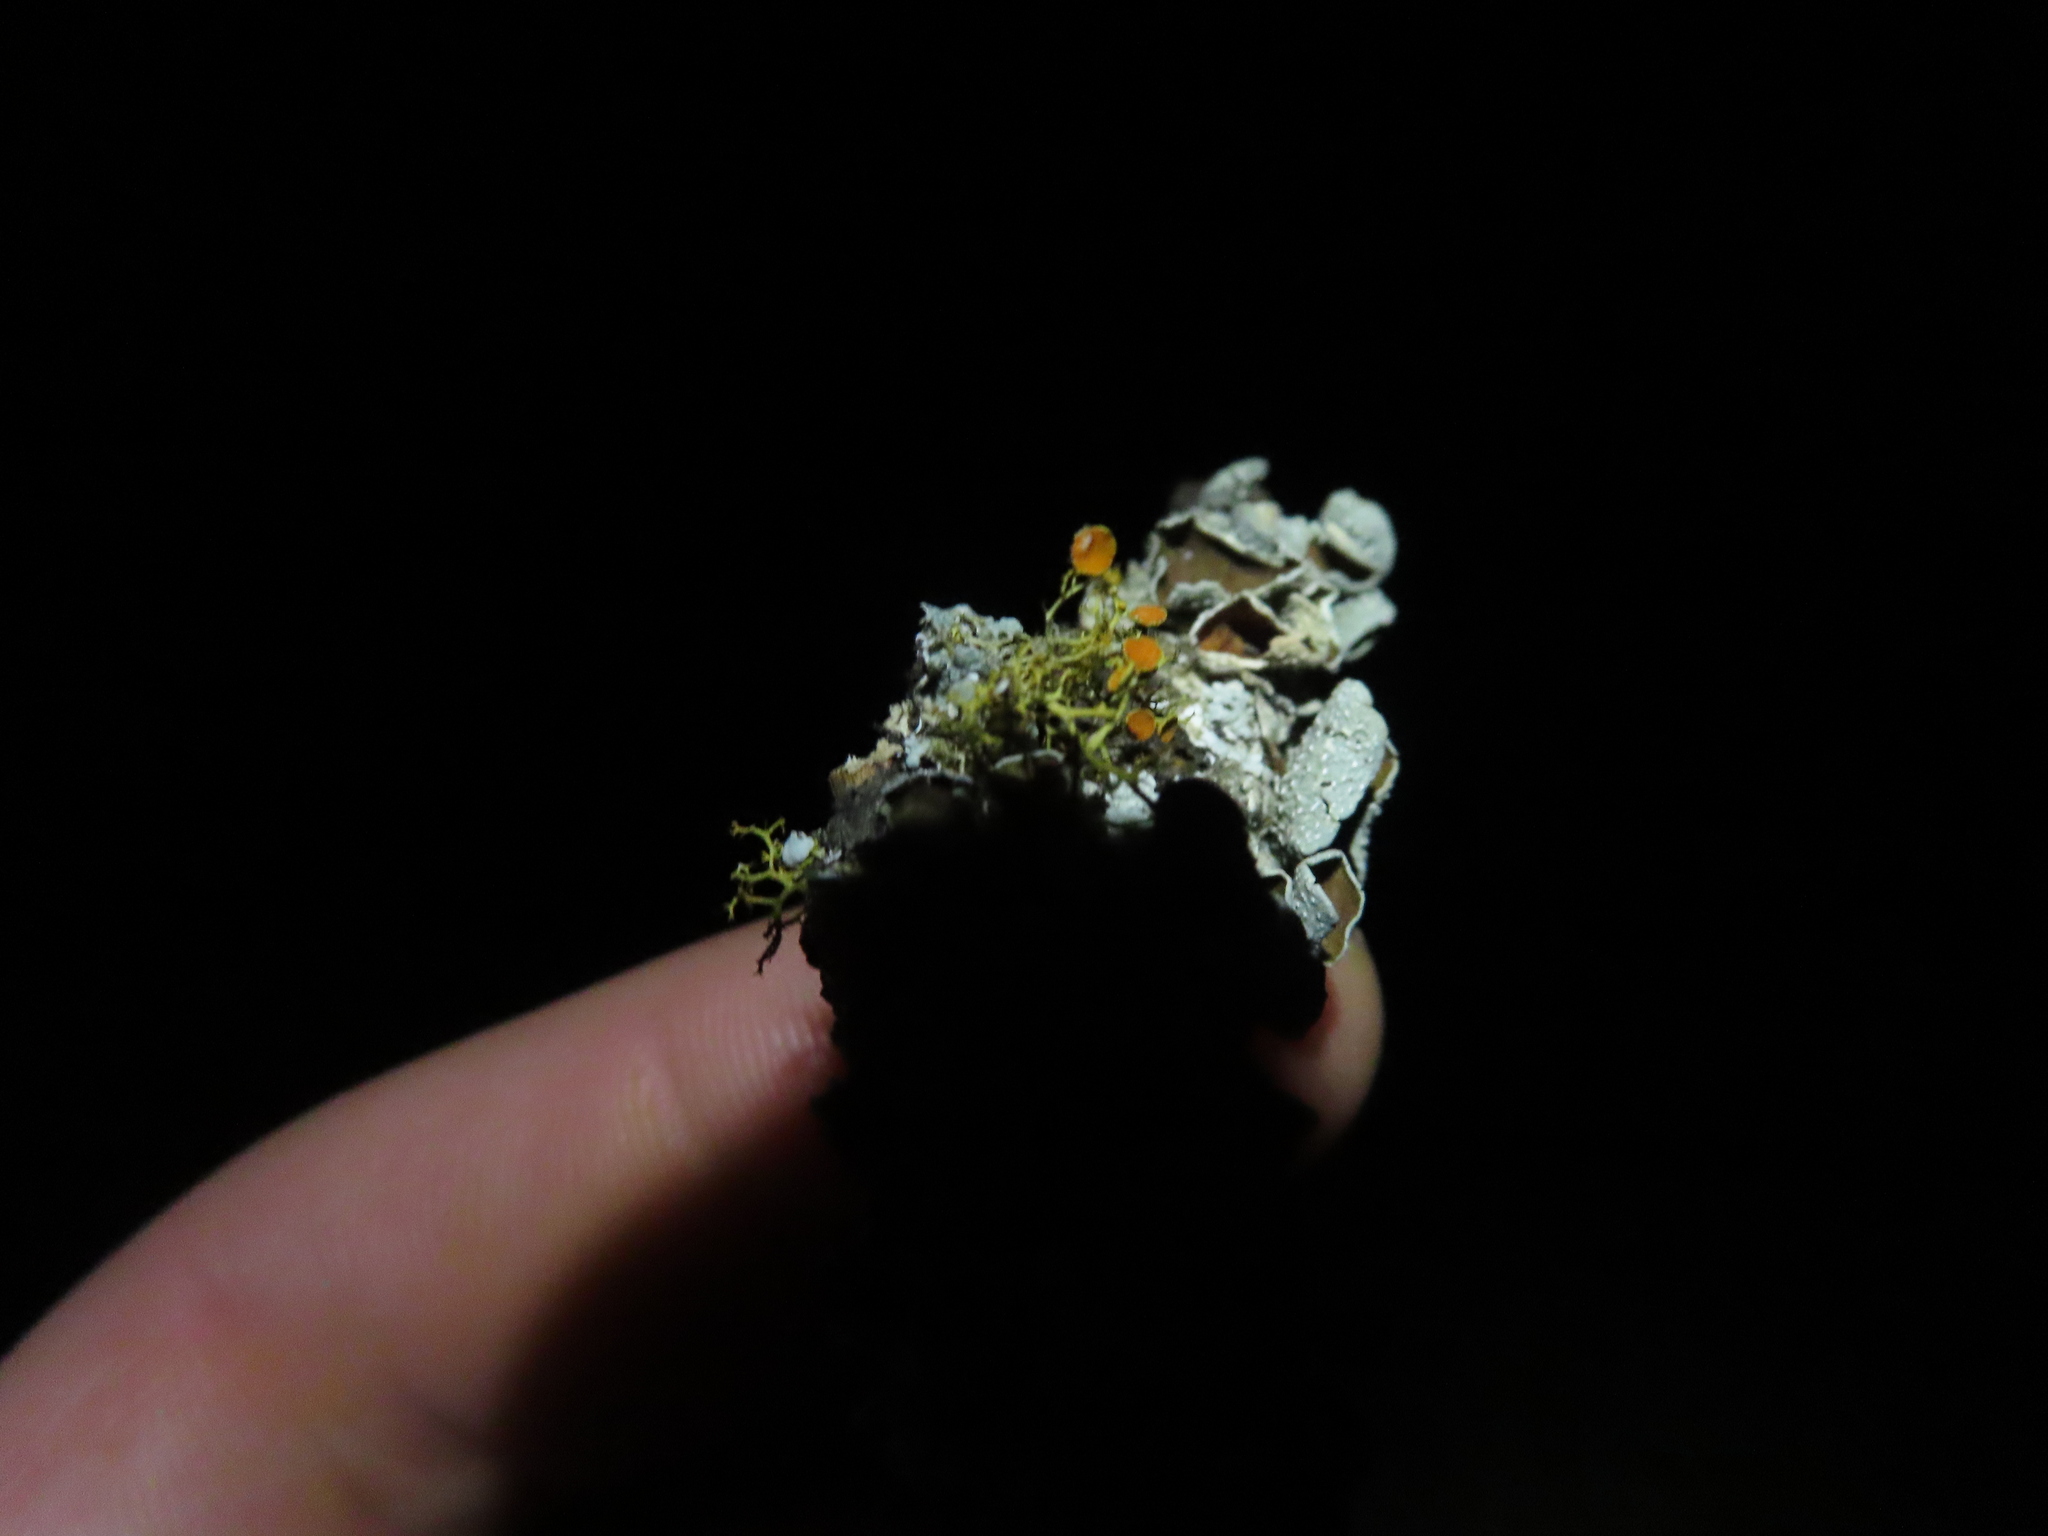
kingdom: Fungi
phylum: Ascomycota
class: Lecanoromycetes
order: Teloschistales
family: Teloschistaceae
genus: Teloschistes
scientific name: Teloschistes exilis
